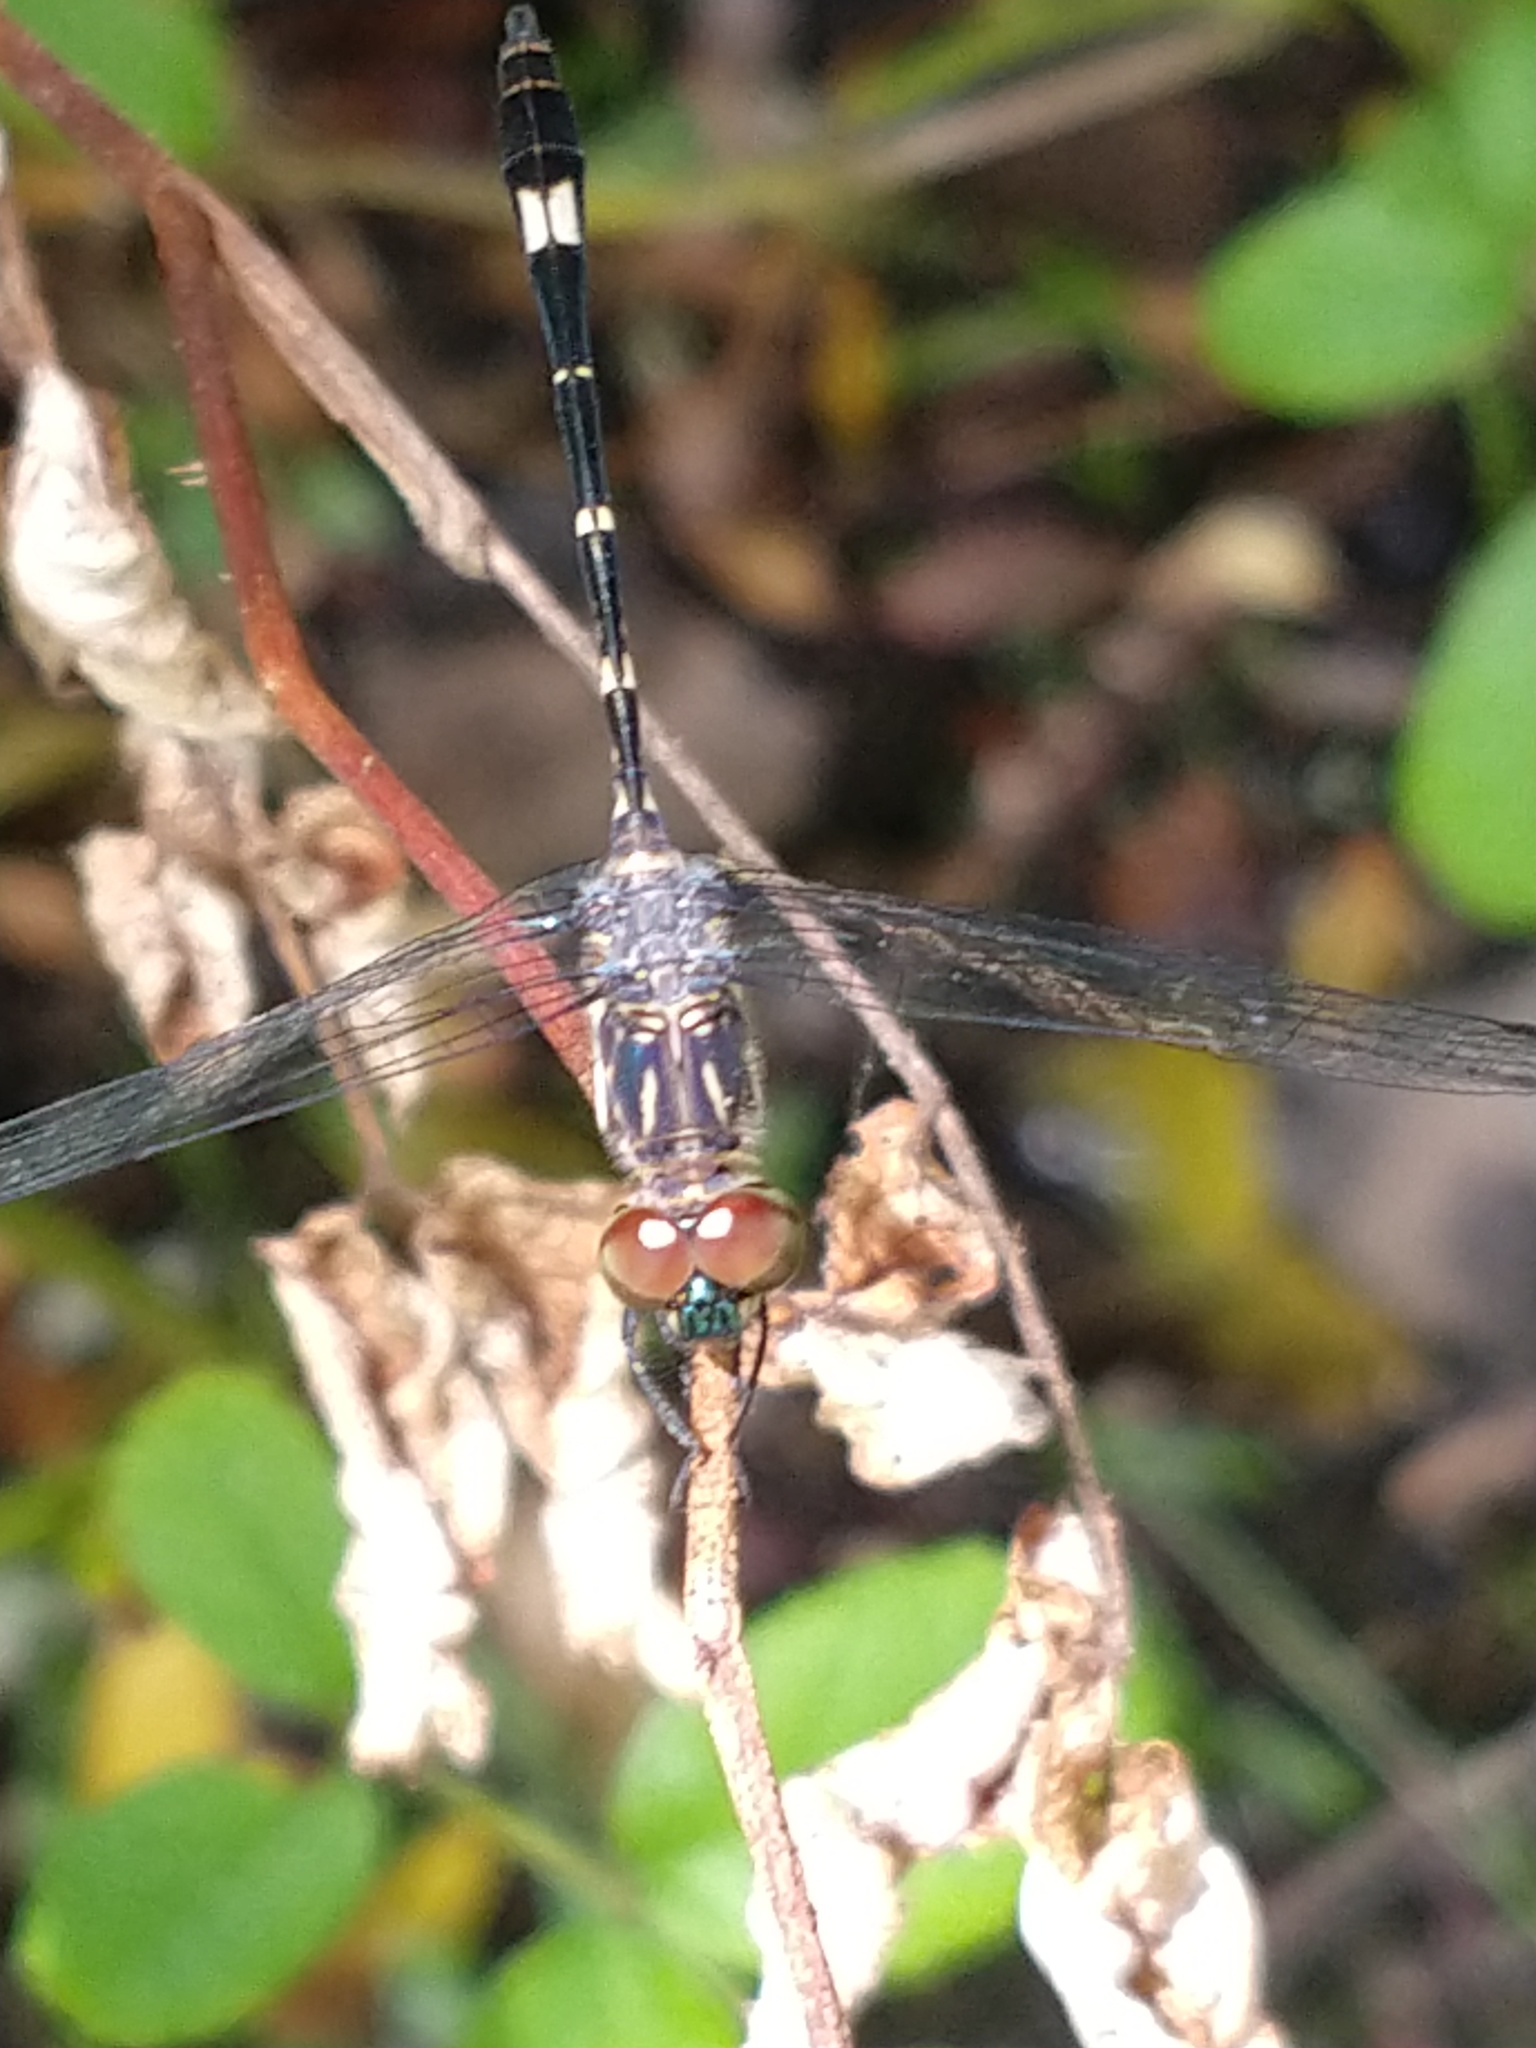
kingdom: Animalia
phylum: Arthropoda
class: Insecta
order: Odonata
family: Libellulidae
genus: Micrathyria
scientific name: Micrathyria hypodidyma
